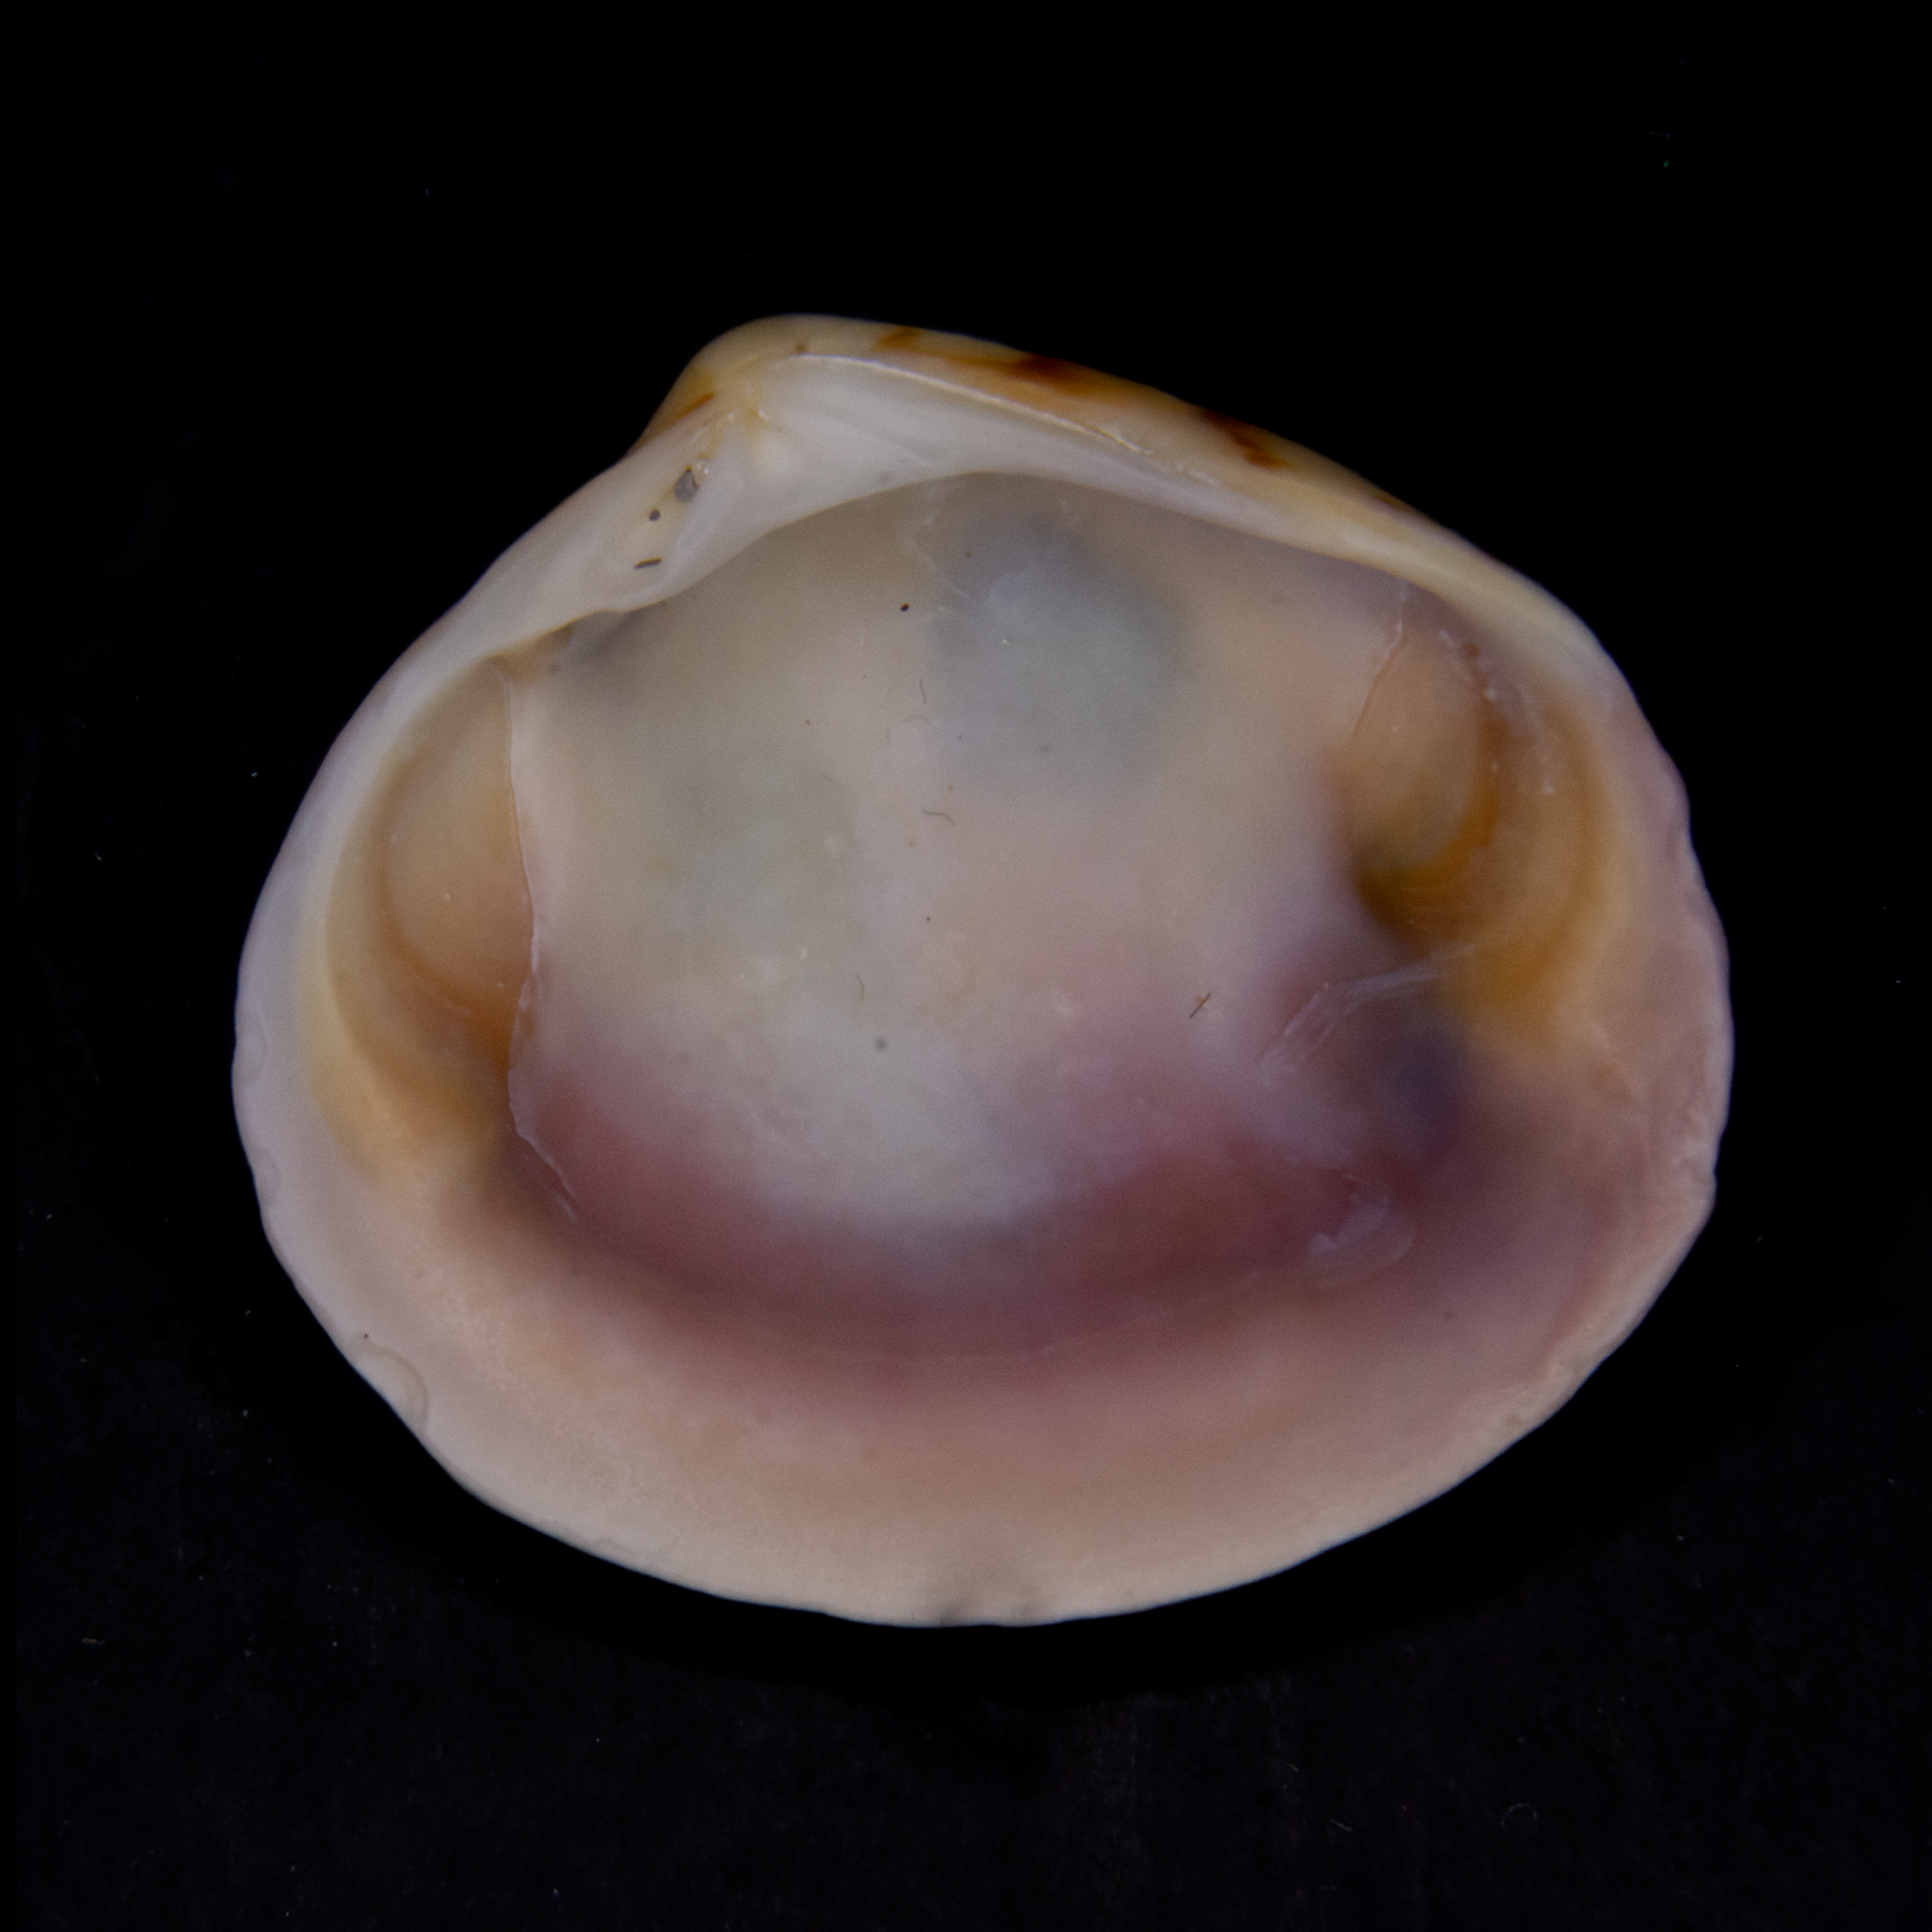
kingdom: Animalia
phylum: Mollusca
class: Bivalvia
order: Venerida
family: Veneridae
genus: Tawera
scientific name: Tawera spissa
